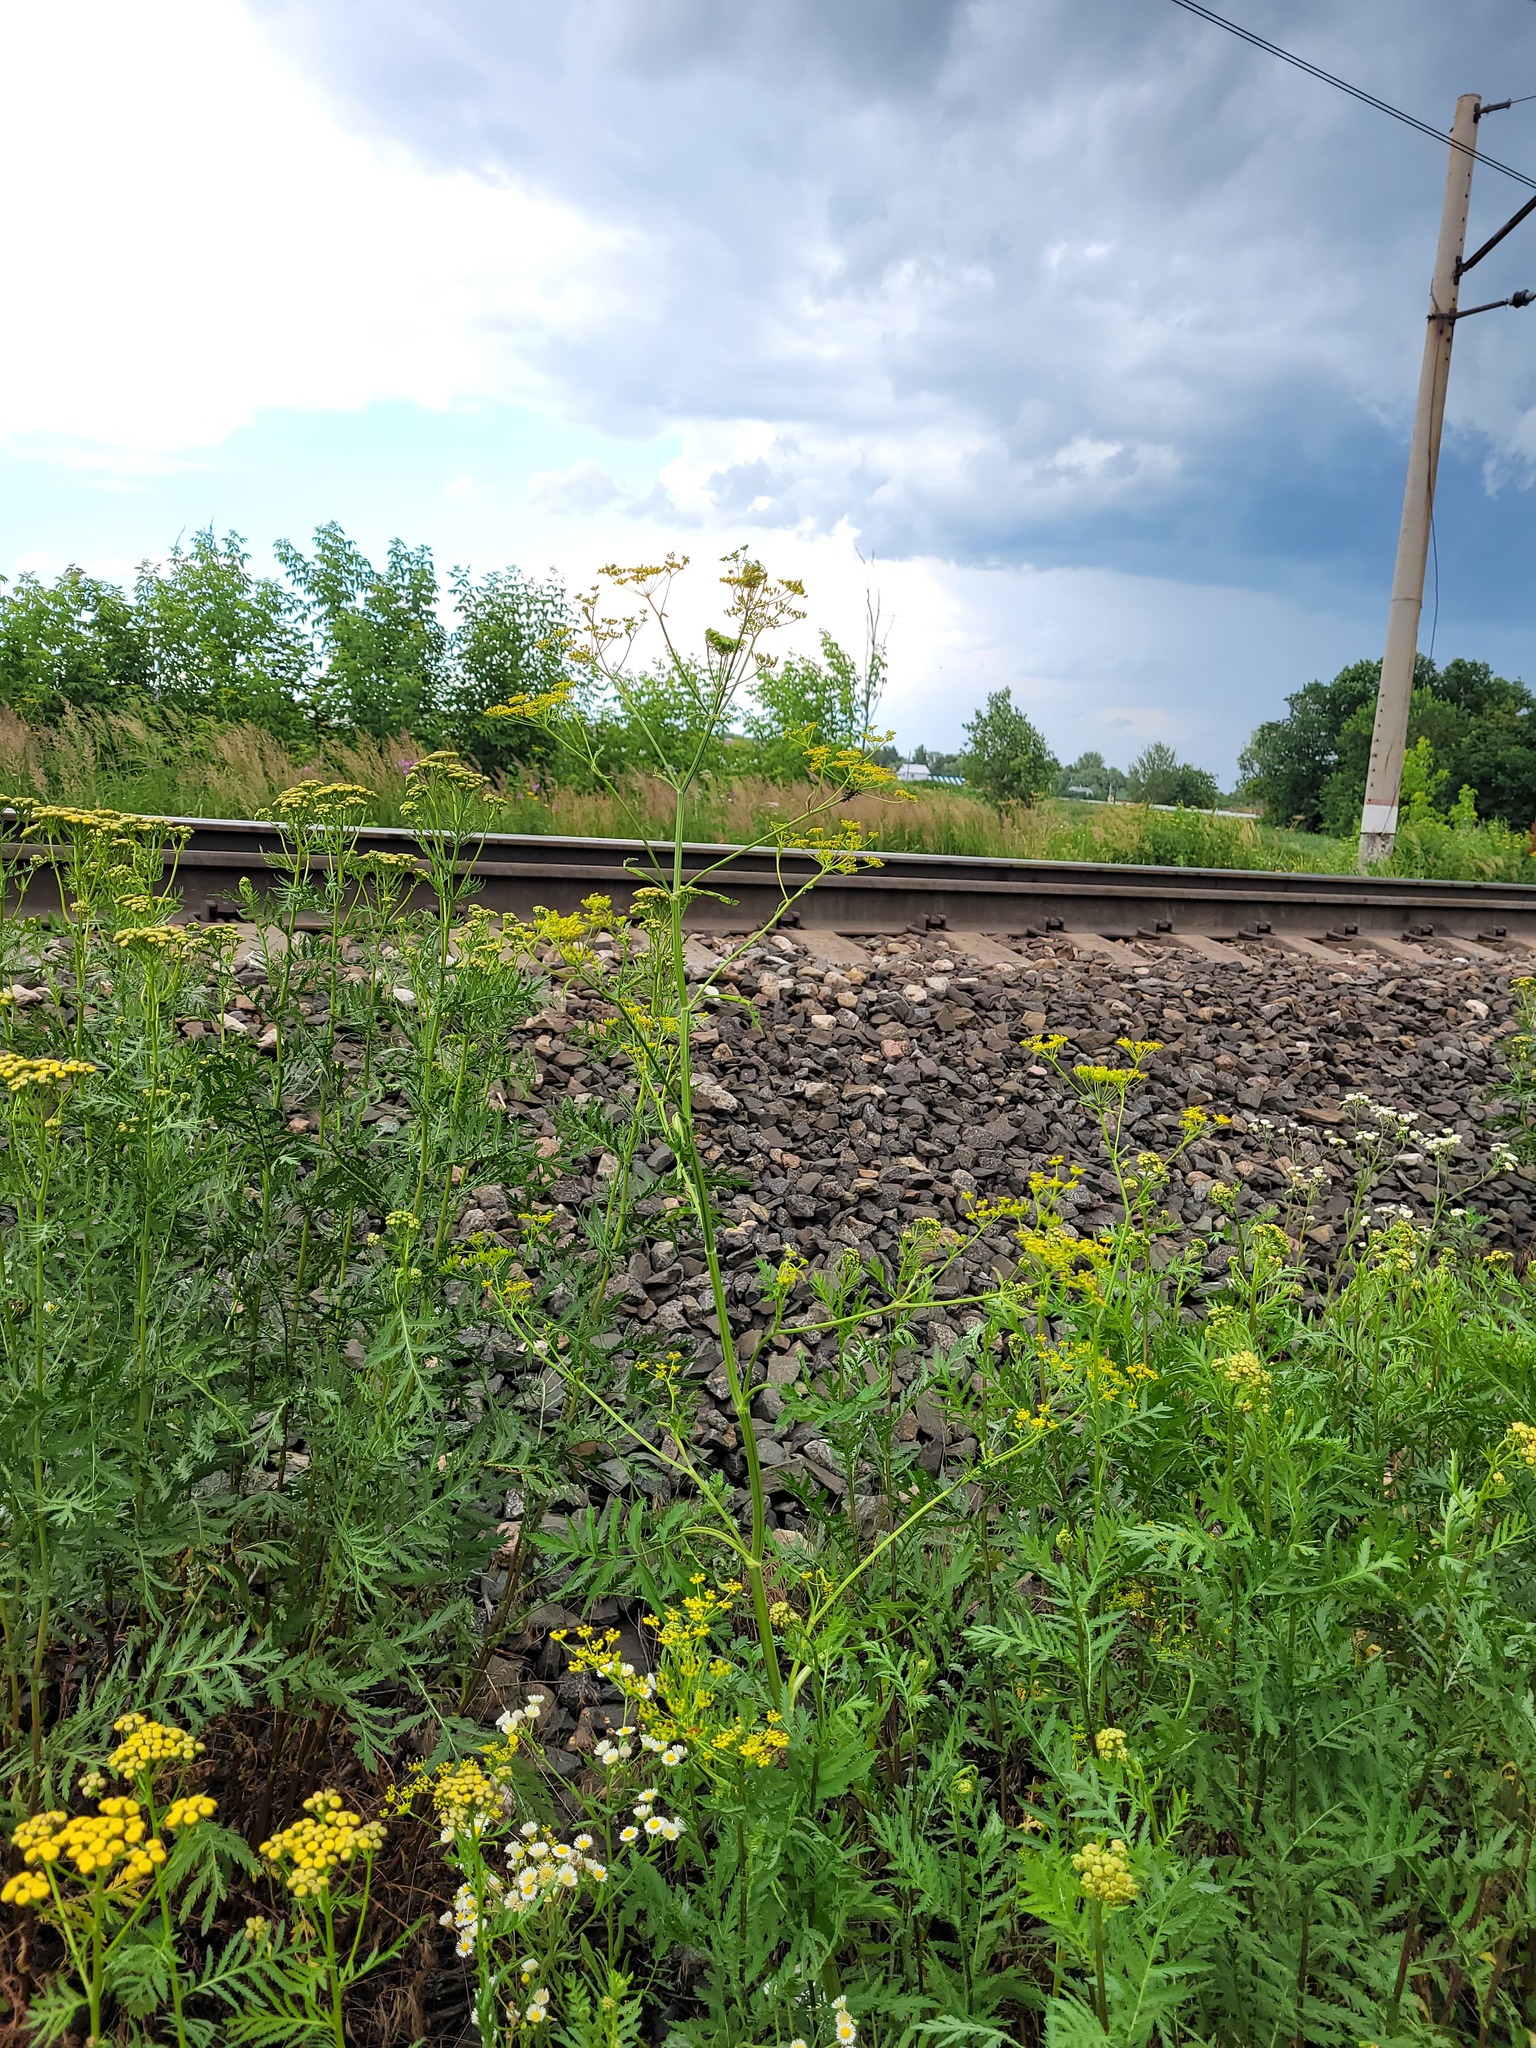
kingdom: Plantae
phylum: Tracheophyta
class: Magnoliopsida
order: Apiales
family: Apiaceae
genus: Pastinaca
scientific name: Pastinaca sativa
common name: Wild parsnip
